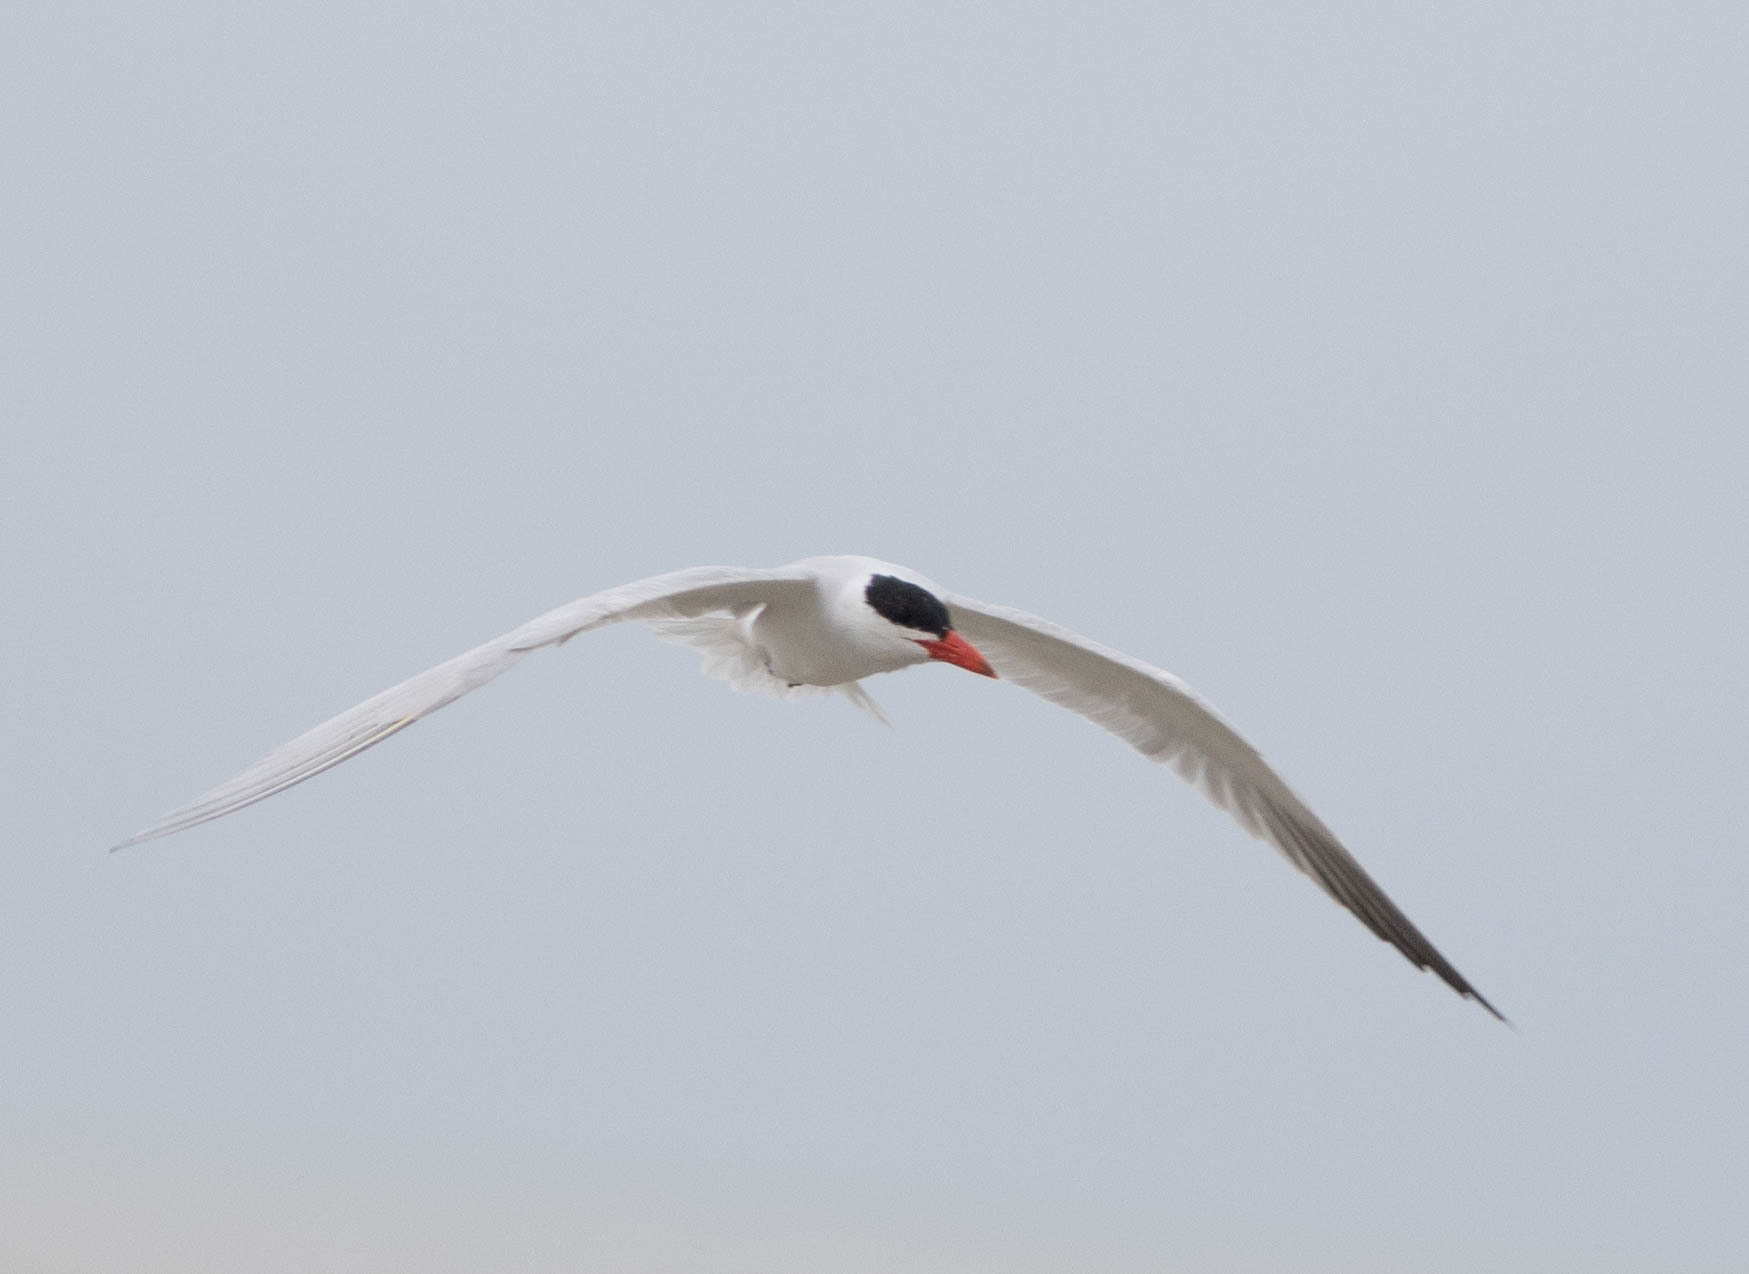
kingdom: Animalia
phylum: Chordata
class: Aves
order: Charadriiformes
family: Laridae
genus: Hydroprogne
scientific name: Hydroprogne caspia
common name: Caspian tern
